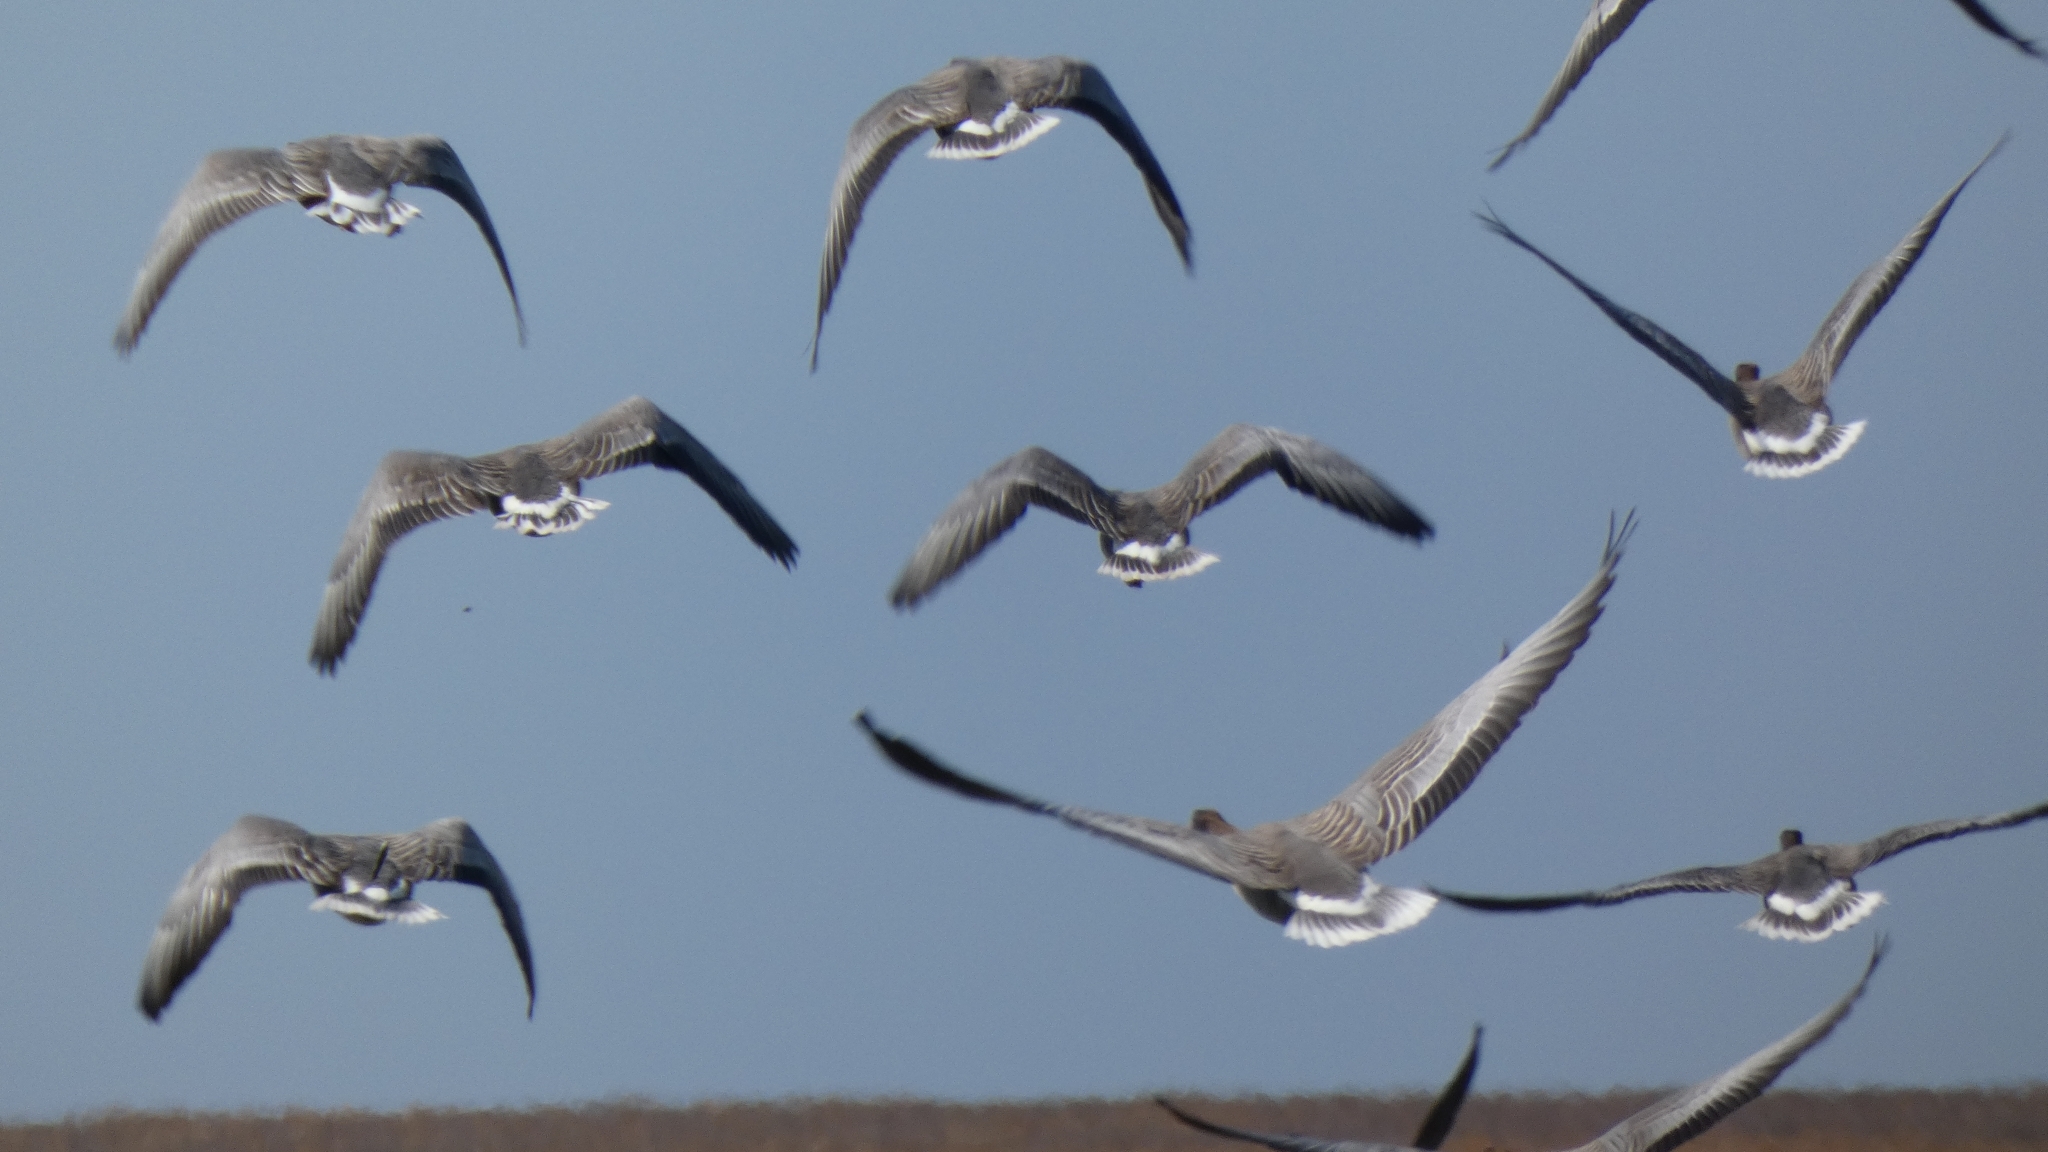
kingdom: Animalia
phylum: Chordata
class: Aves
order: Anseriformes
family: Anatidae
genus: Anser
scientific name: Anser brachyrhynchus
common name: Pink-footed goose
